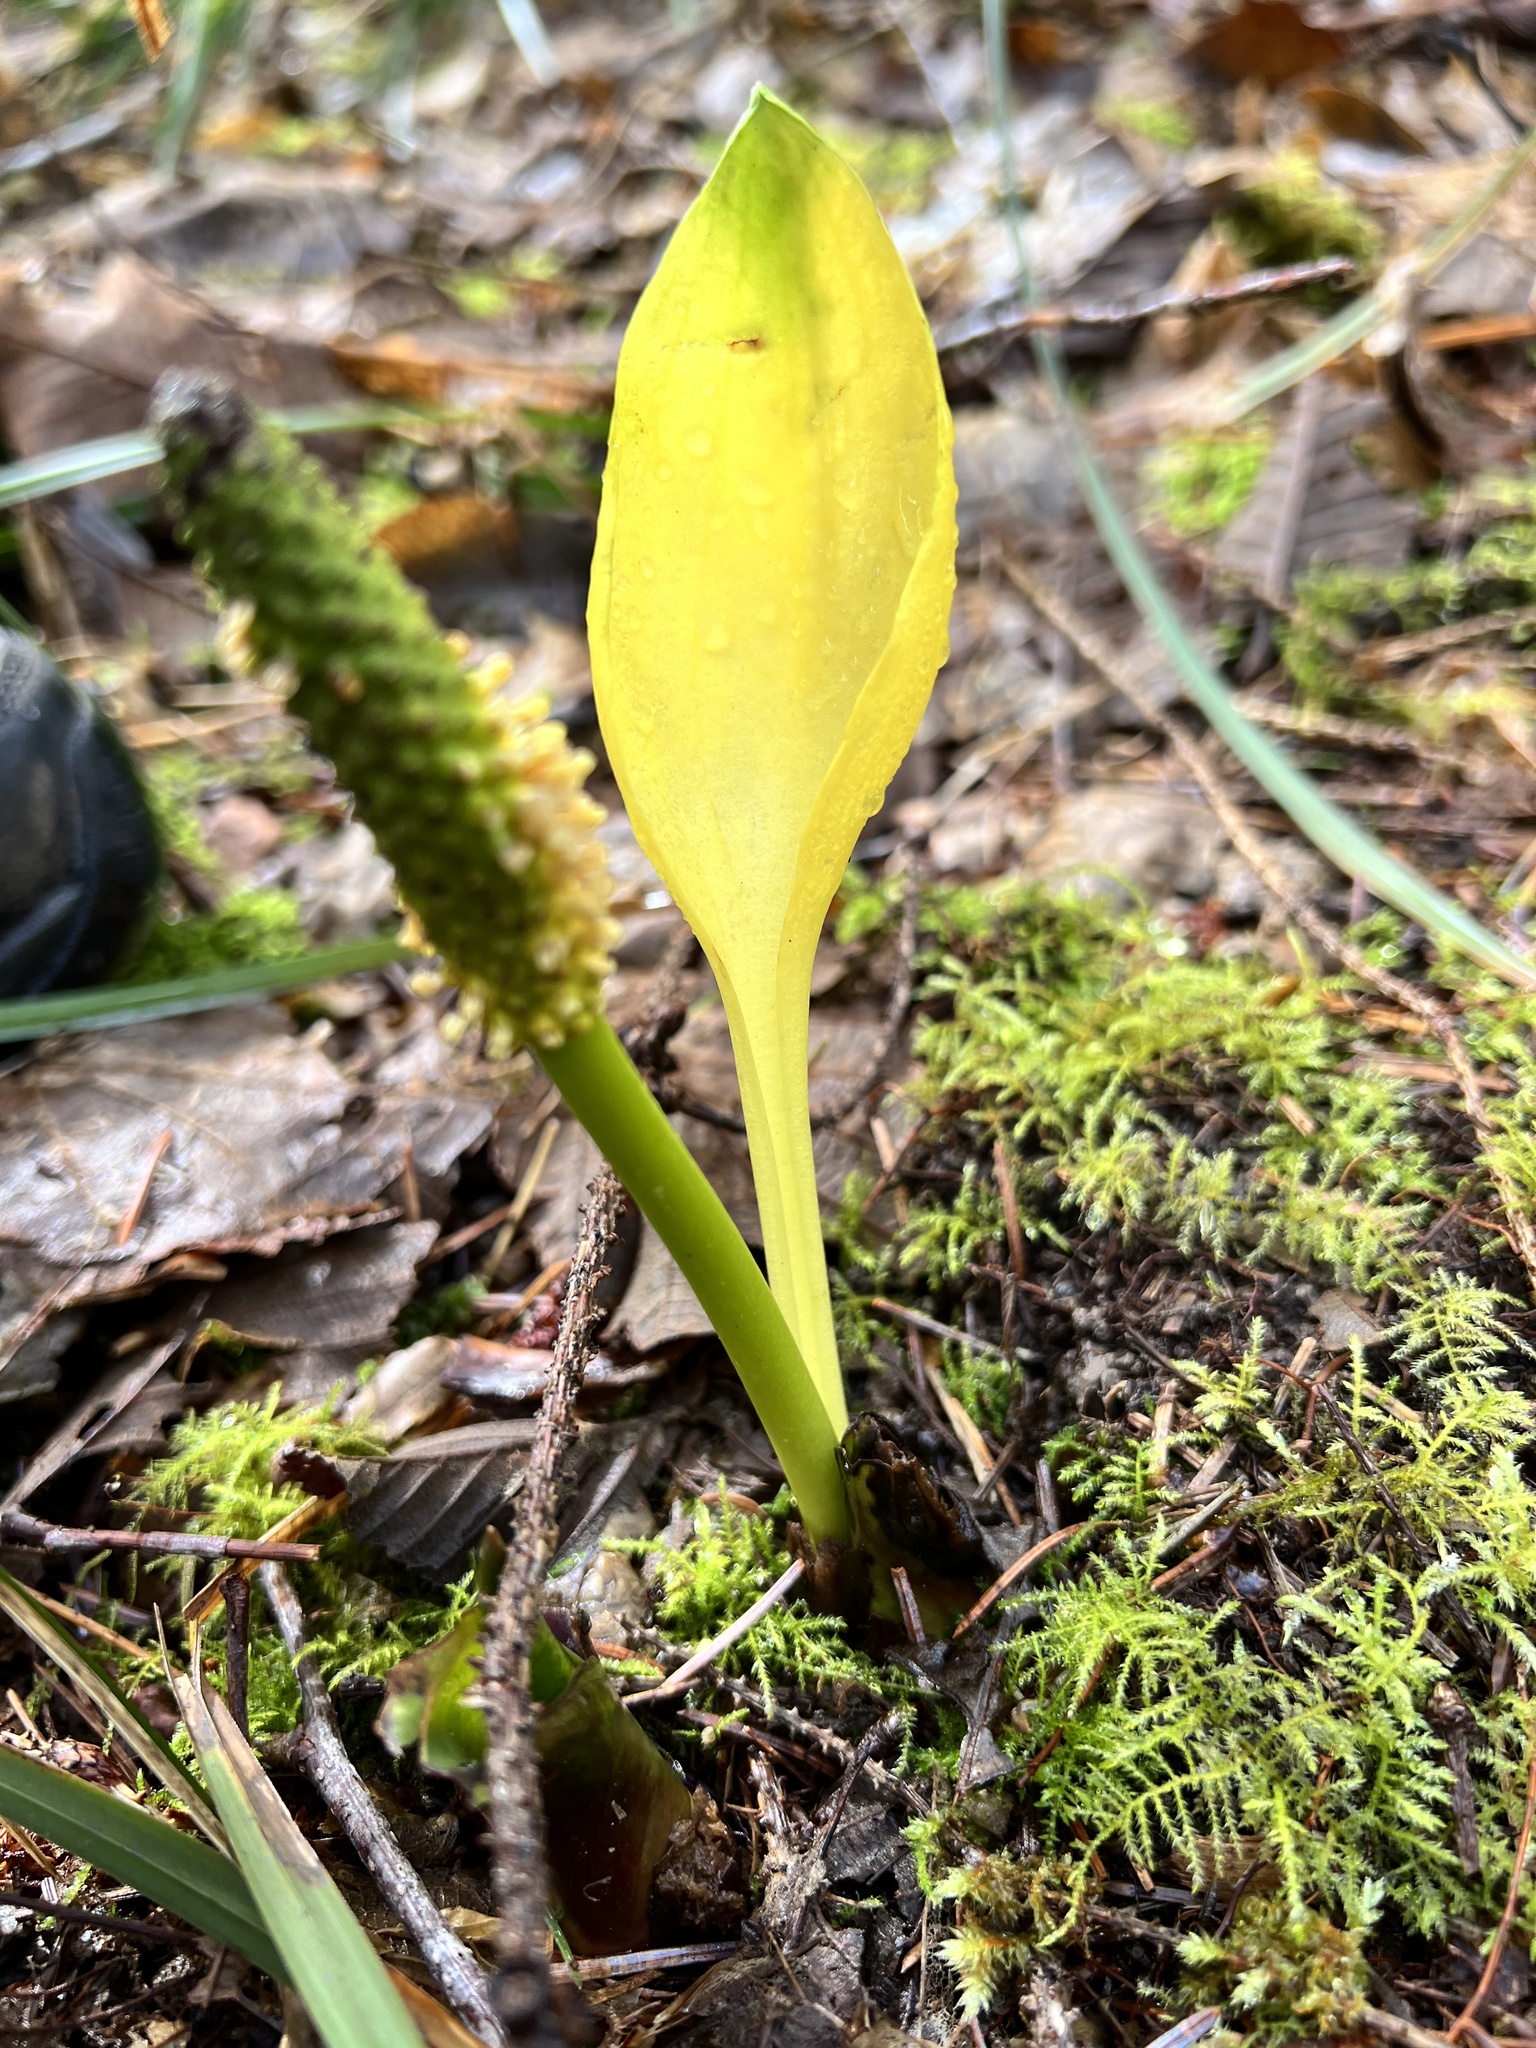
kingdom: Plantae
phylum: Tracheophyta
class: Liliopsida
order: Alismatales
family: Araceae
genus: Lysichiton
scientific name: Lysichiton americanus
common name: American skunk cabbage
